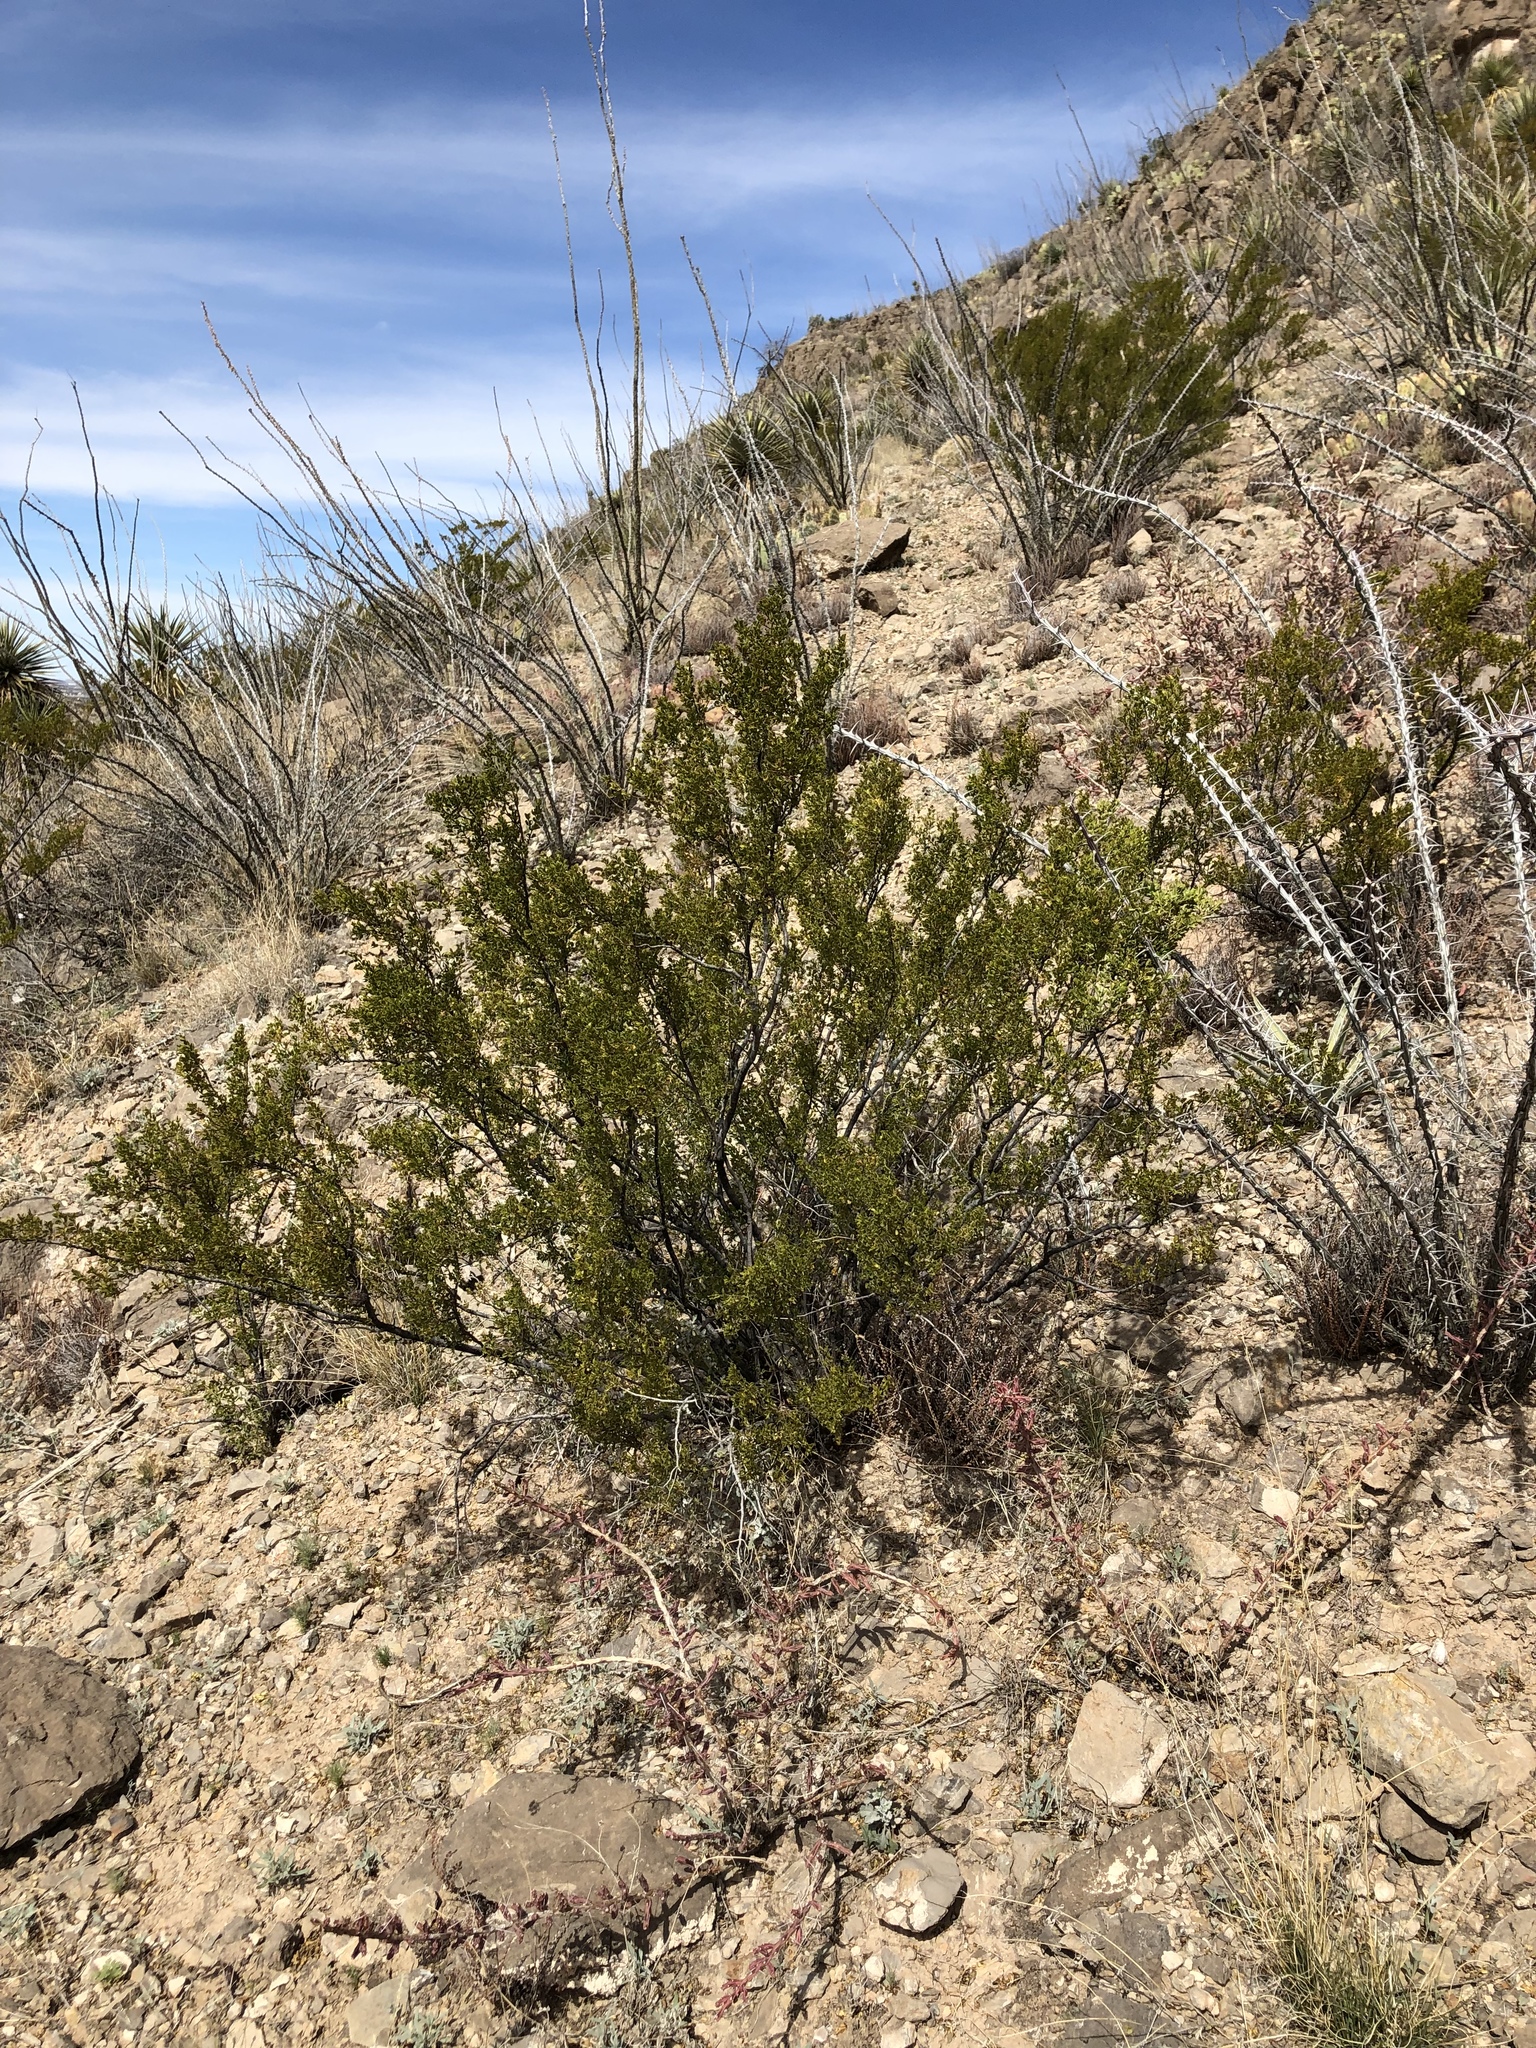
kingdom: Plantae
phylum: Tracheophyta
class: Magnoliopsida
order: Zygophyllales
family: Zygophyllaceae
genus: Larrea
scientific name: Larrea tridentata
